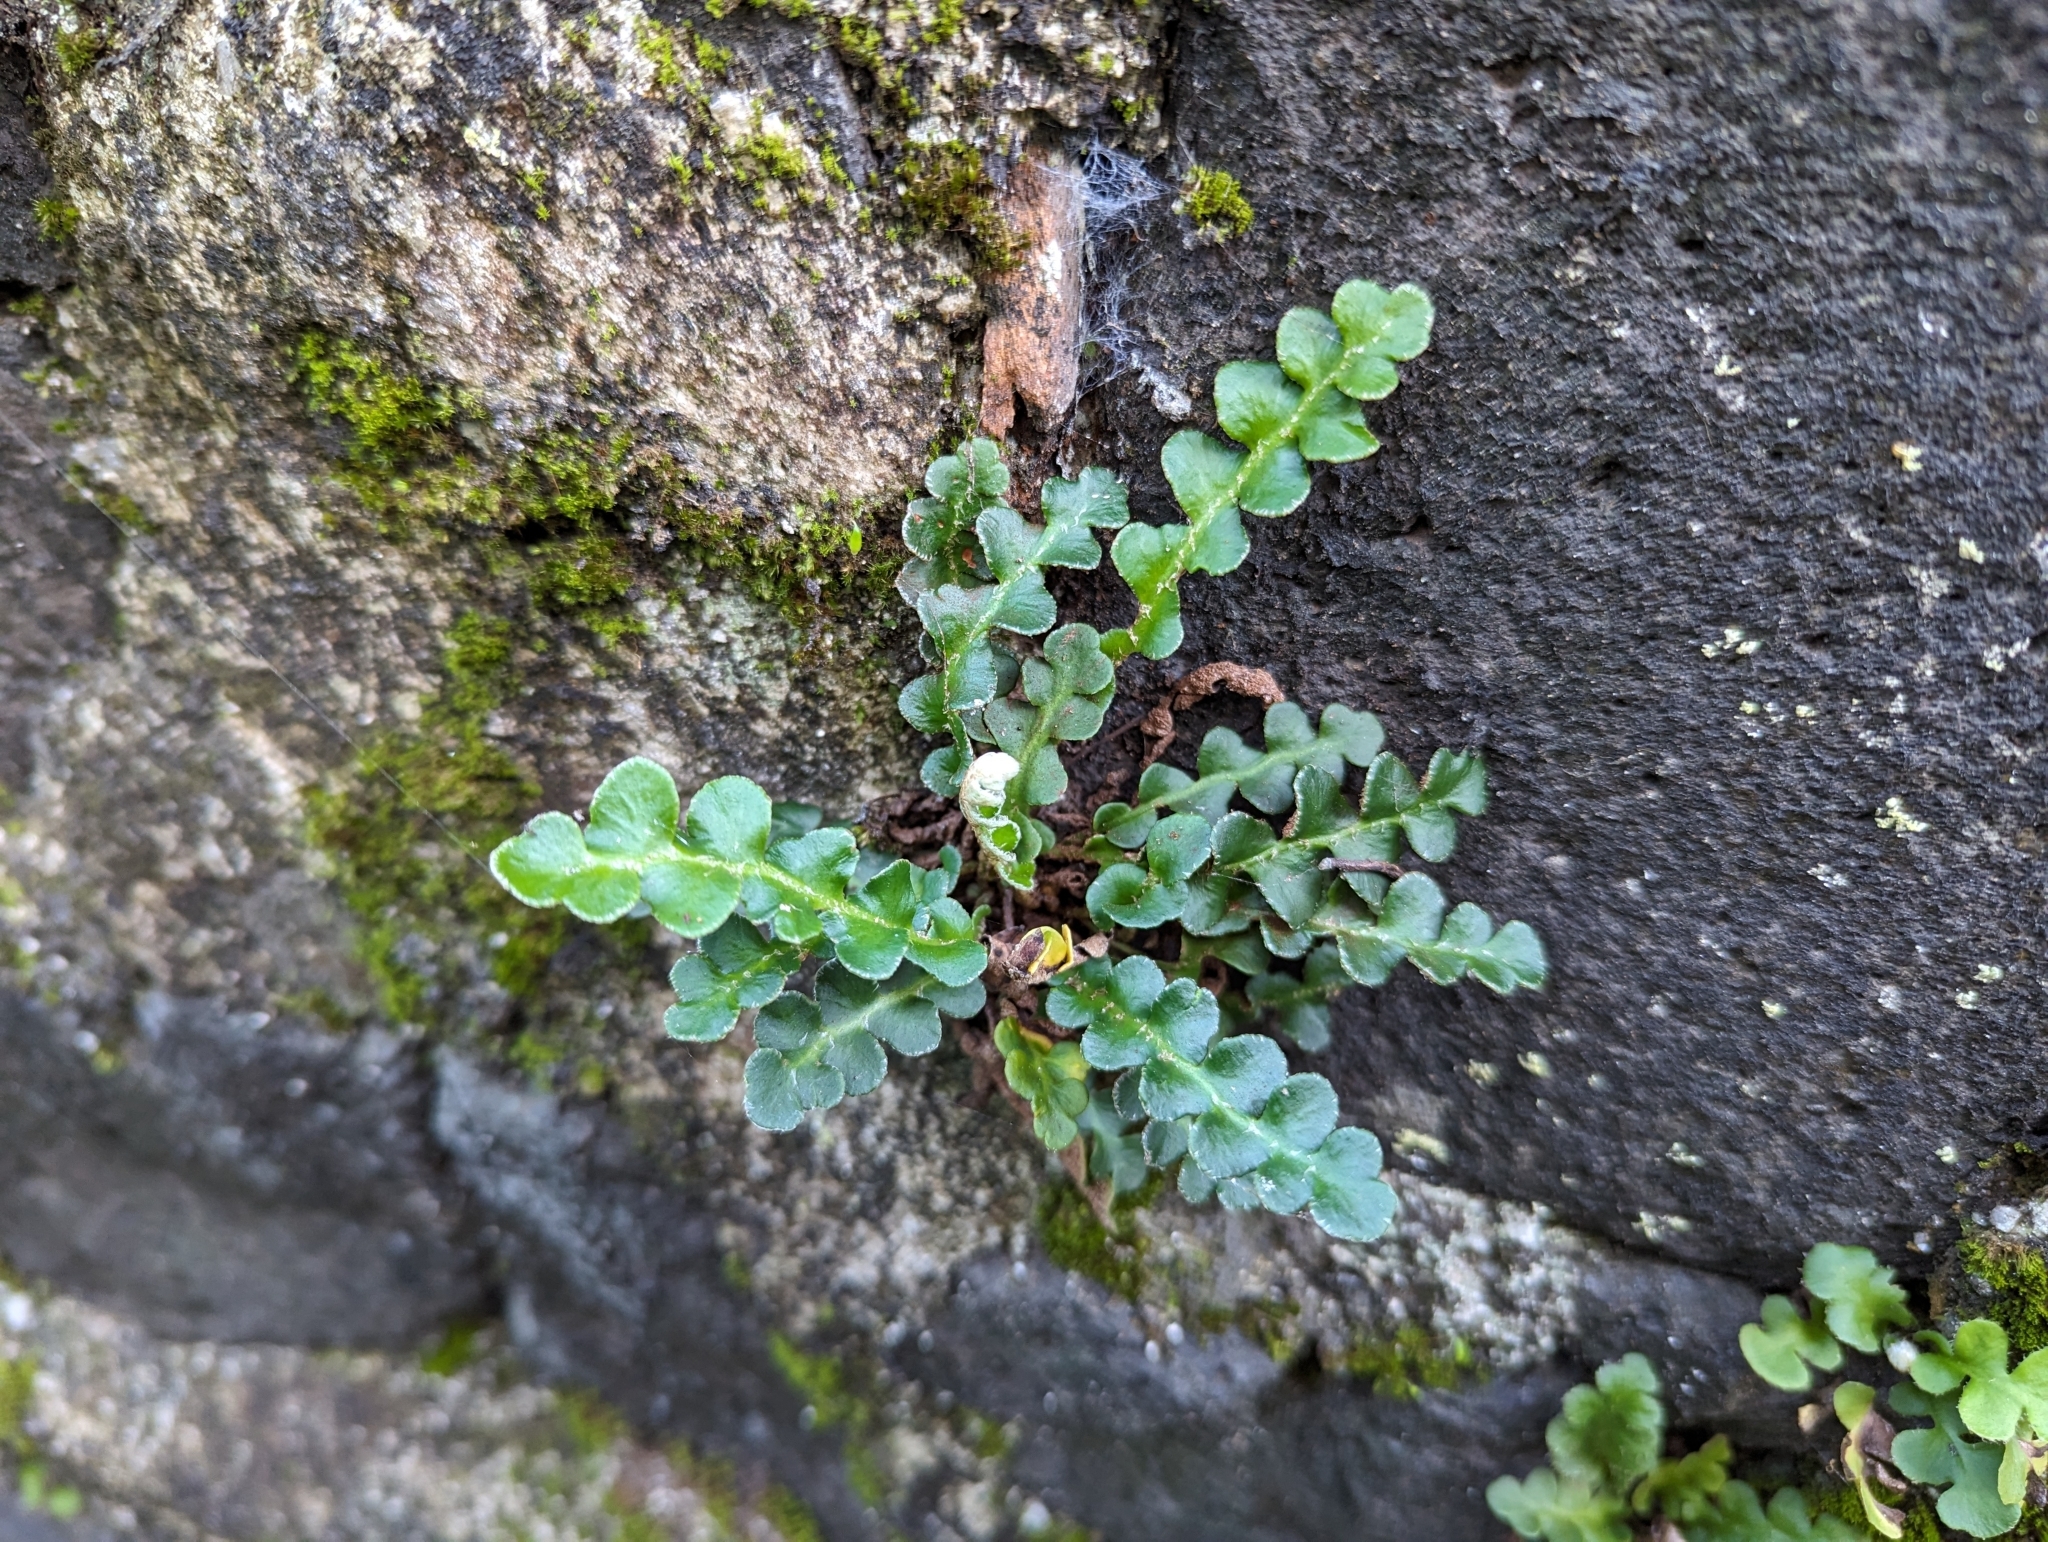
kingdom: Plantae
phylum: Tracheophyta
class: Polypodiopsida
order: Polypodiales
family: Aspleniaceae
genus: Asplenium
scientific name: Asplenium ceterach
